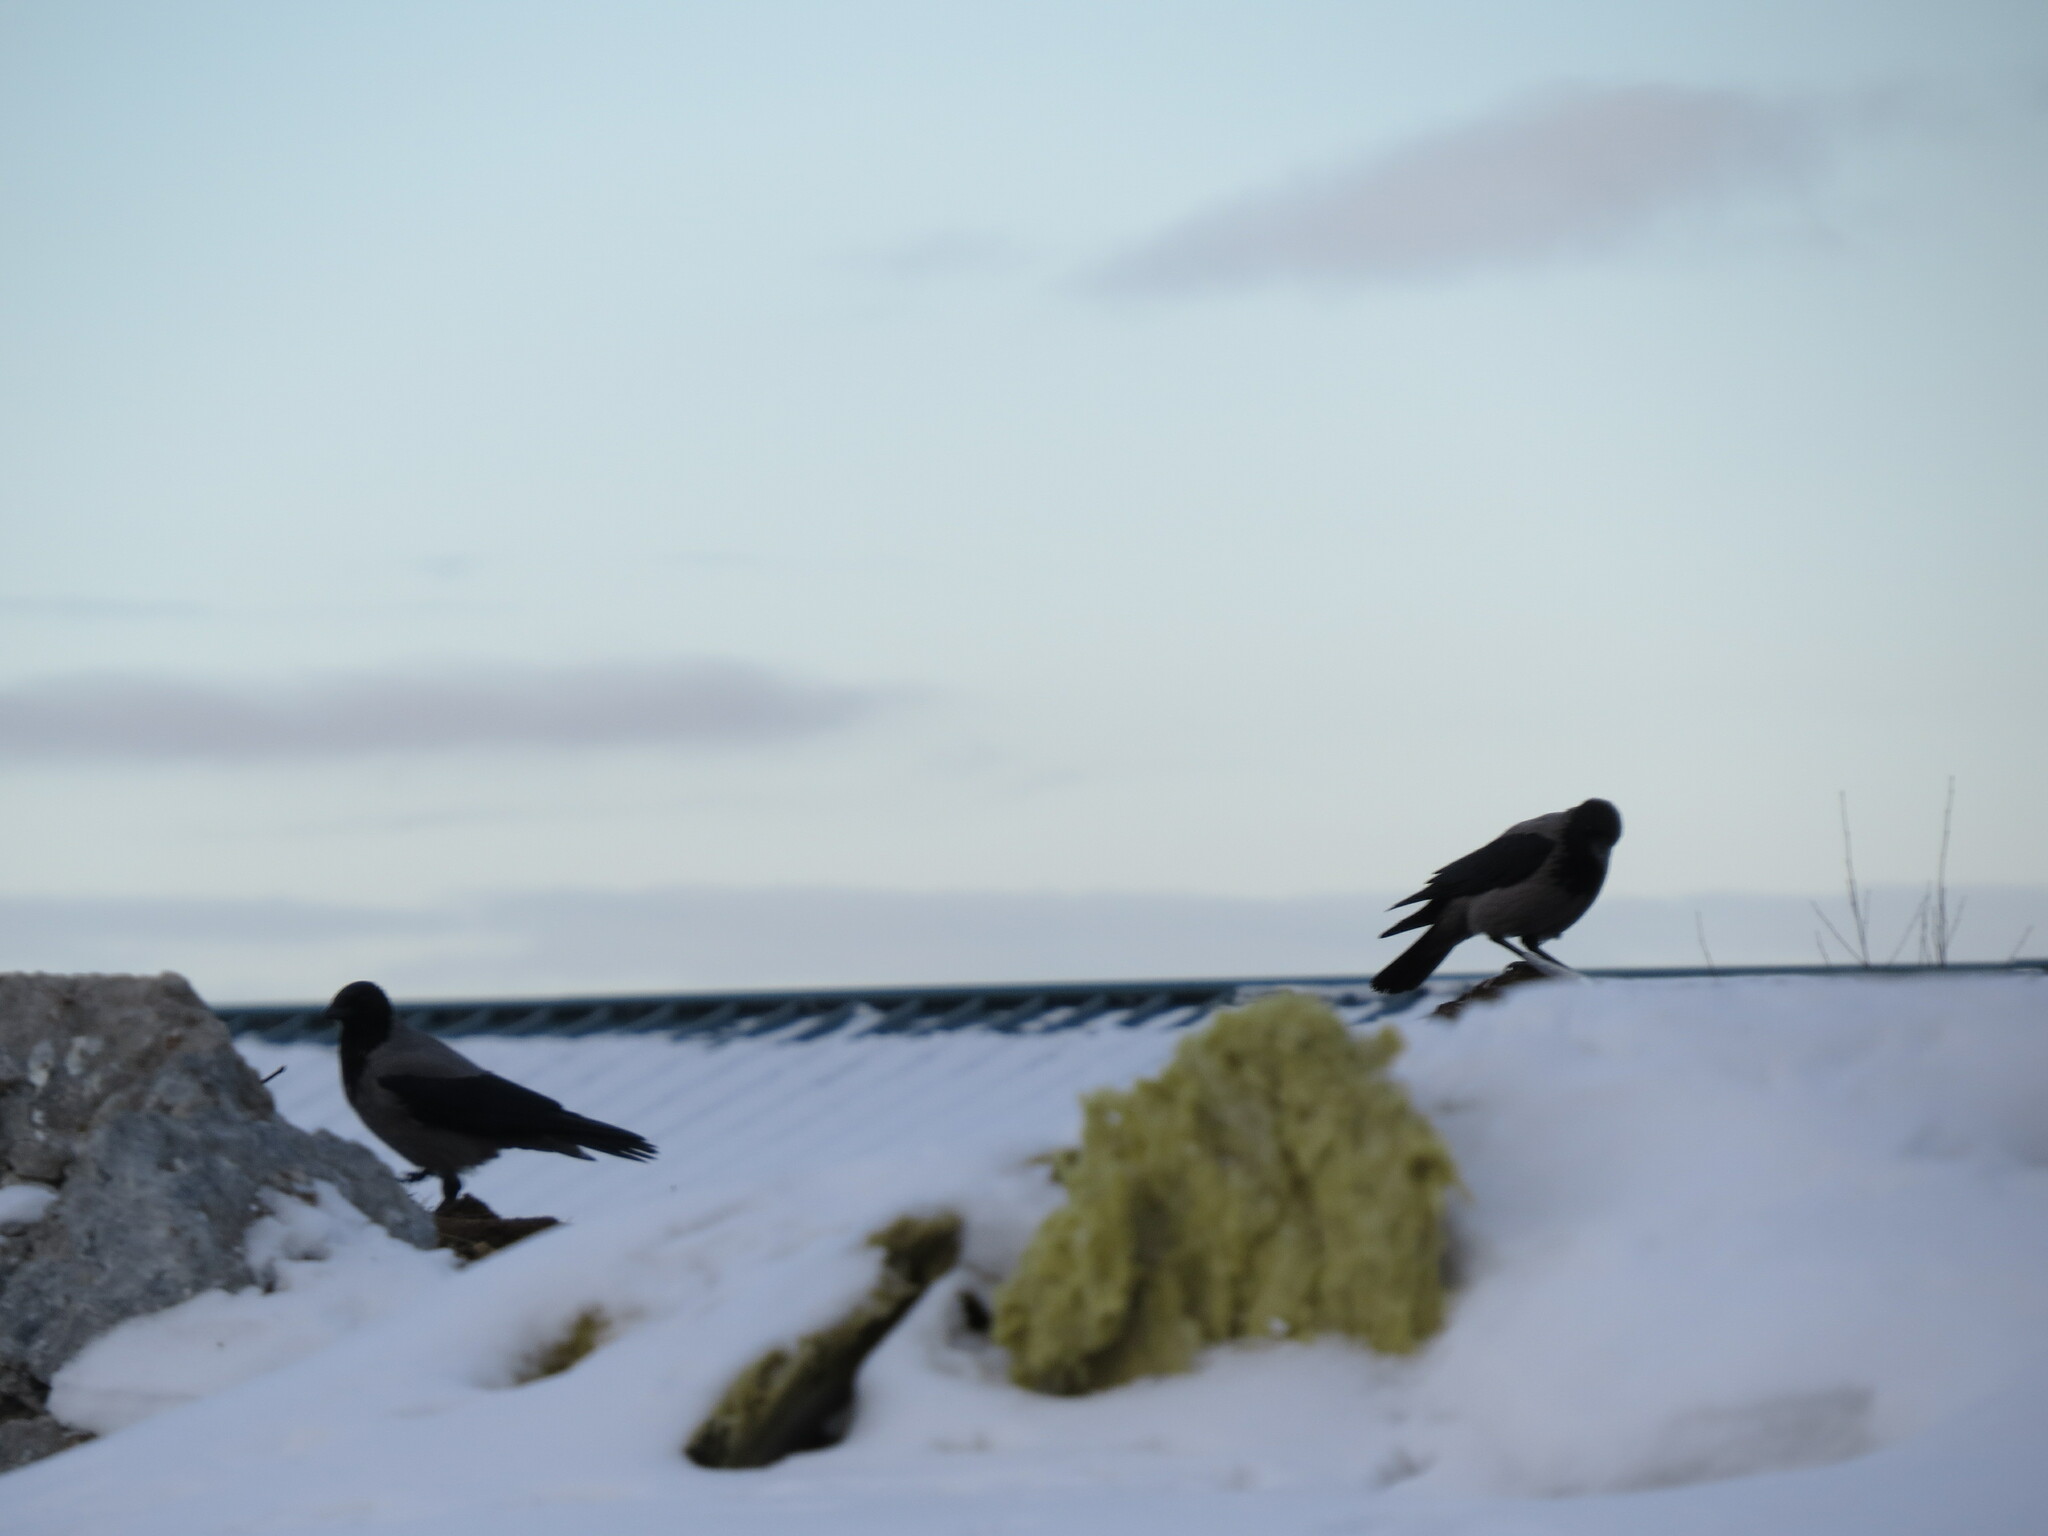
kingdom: Animalia
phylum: Chordata
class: Aves
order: Passeriformes
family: Corvidae
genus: Corvus
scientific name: Corvus cornix
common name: Hooded crow
